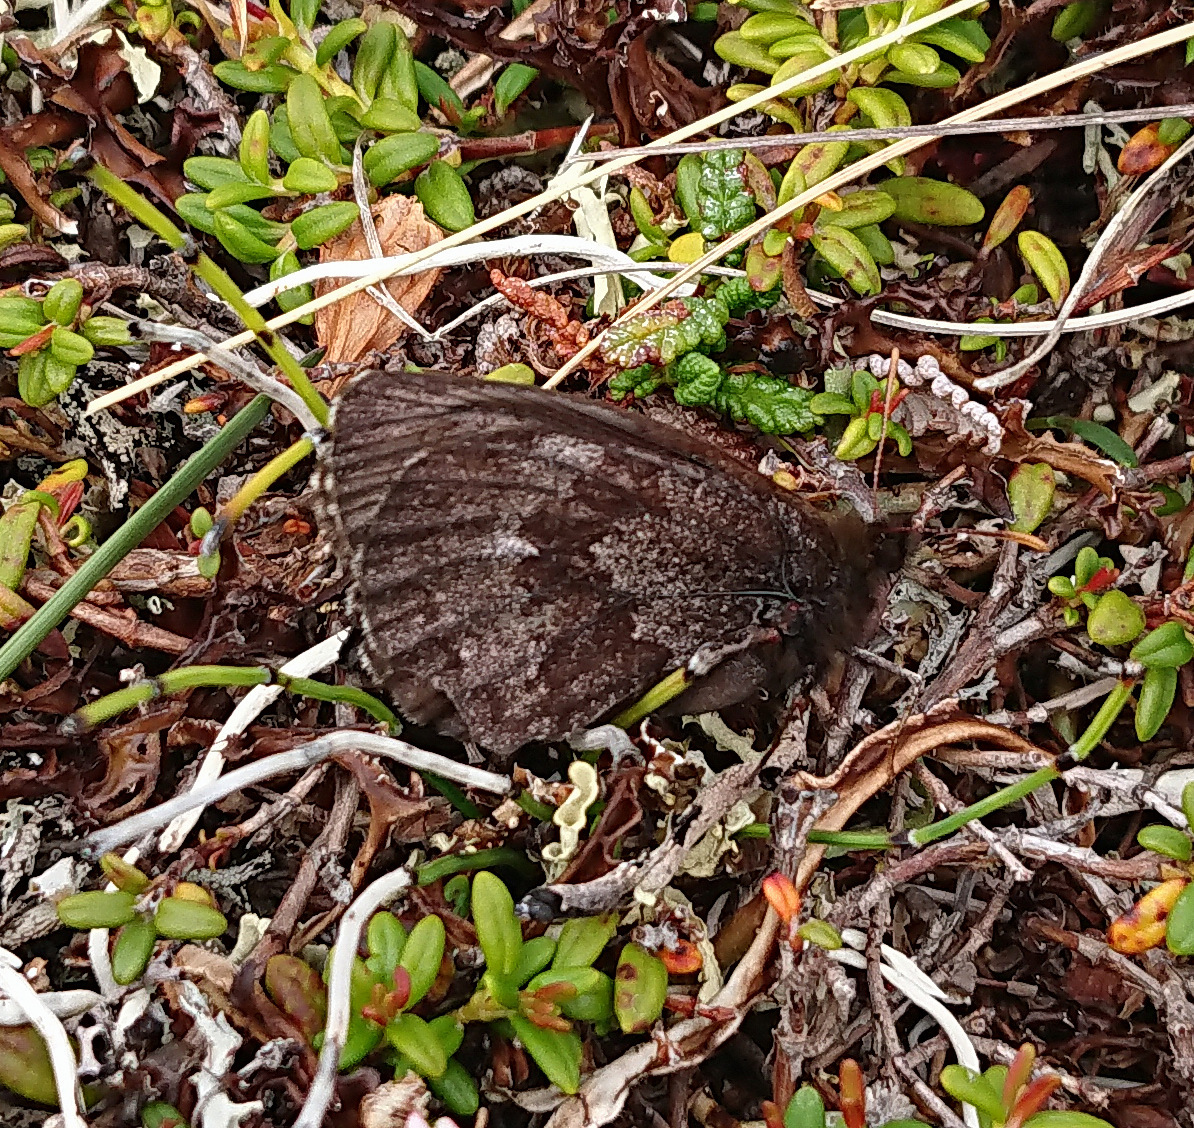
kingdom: Animalia
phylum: Arthropoda
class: Insecta
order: Lepidoptera
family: Nymphalidae
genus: Erebia
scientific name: Erebia disa
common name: Arctic ringlet
